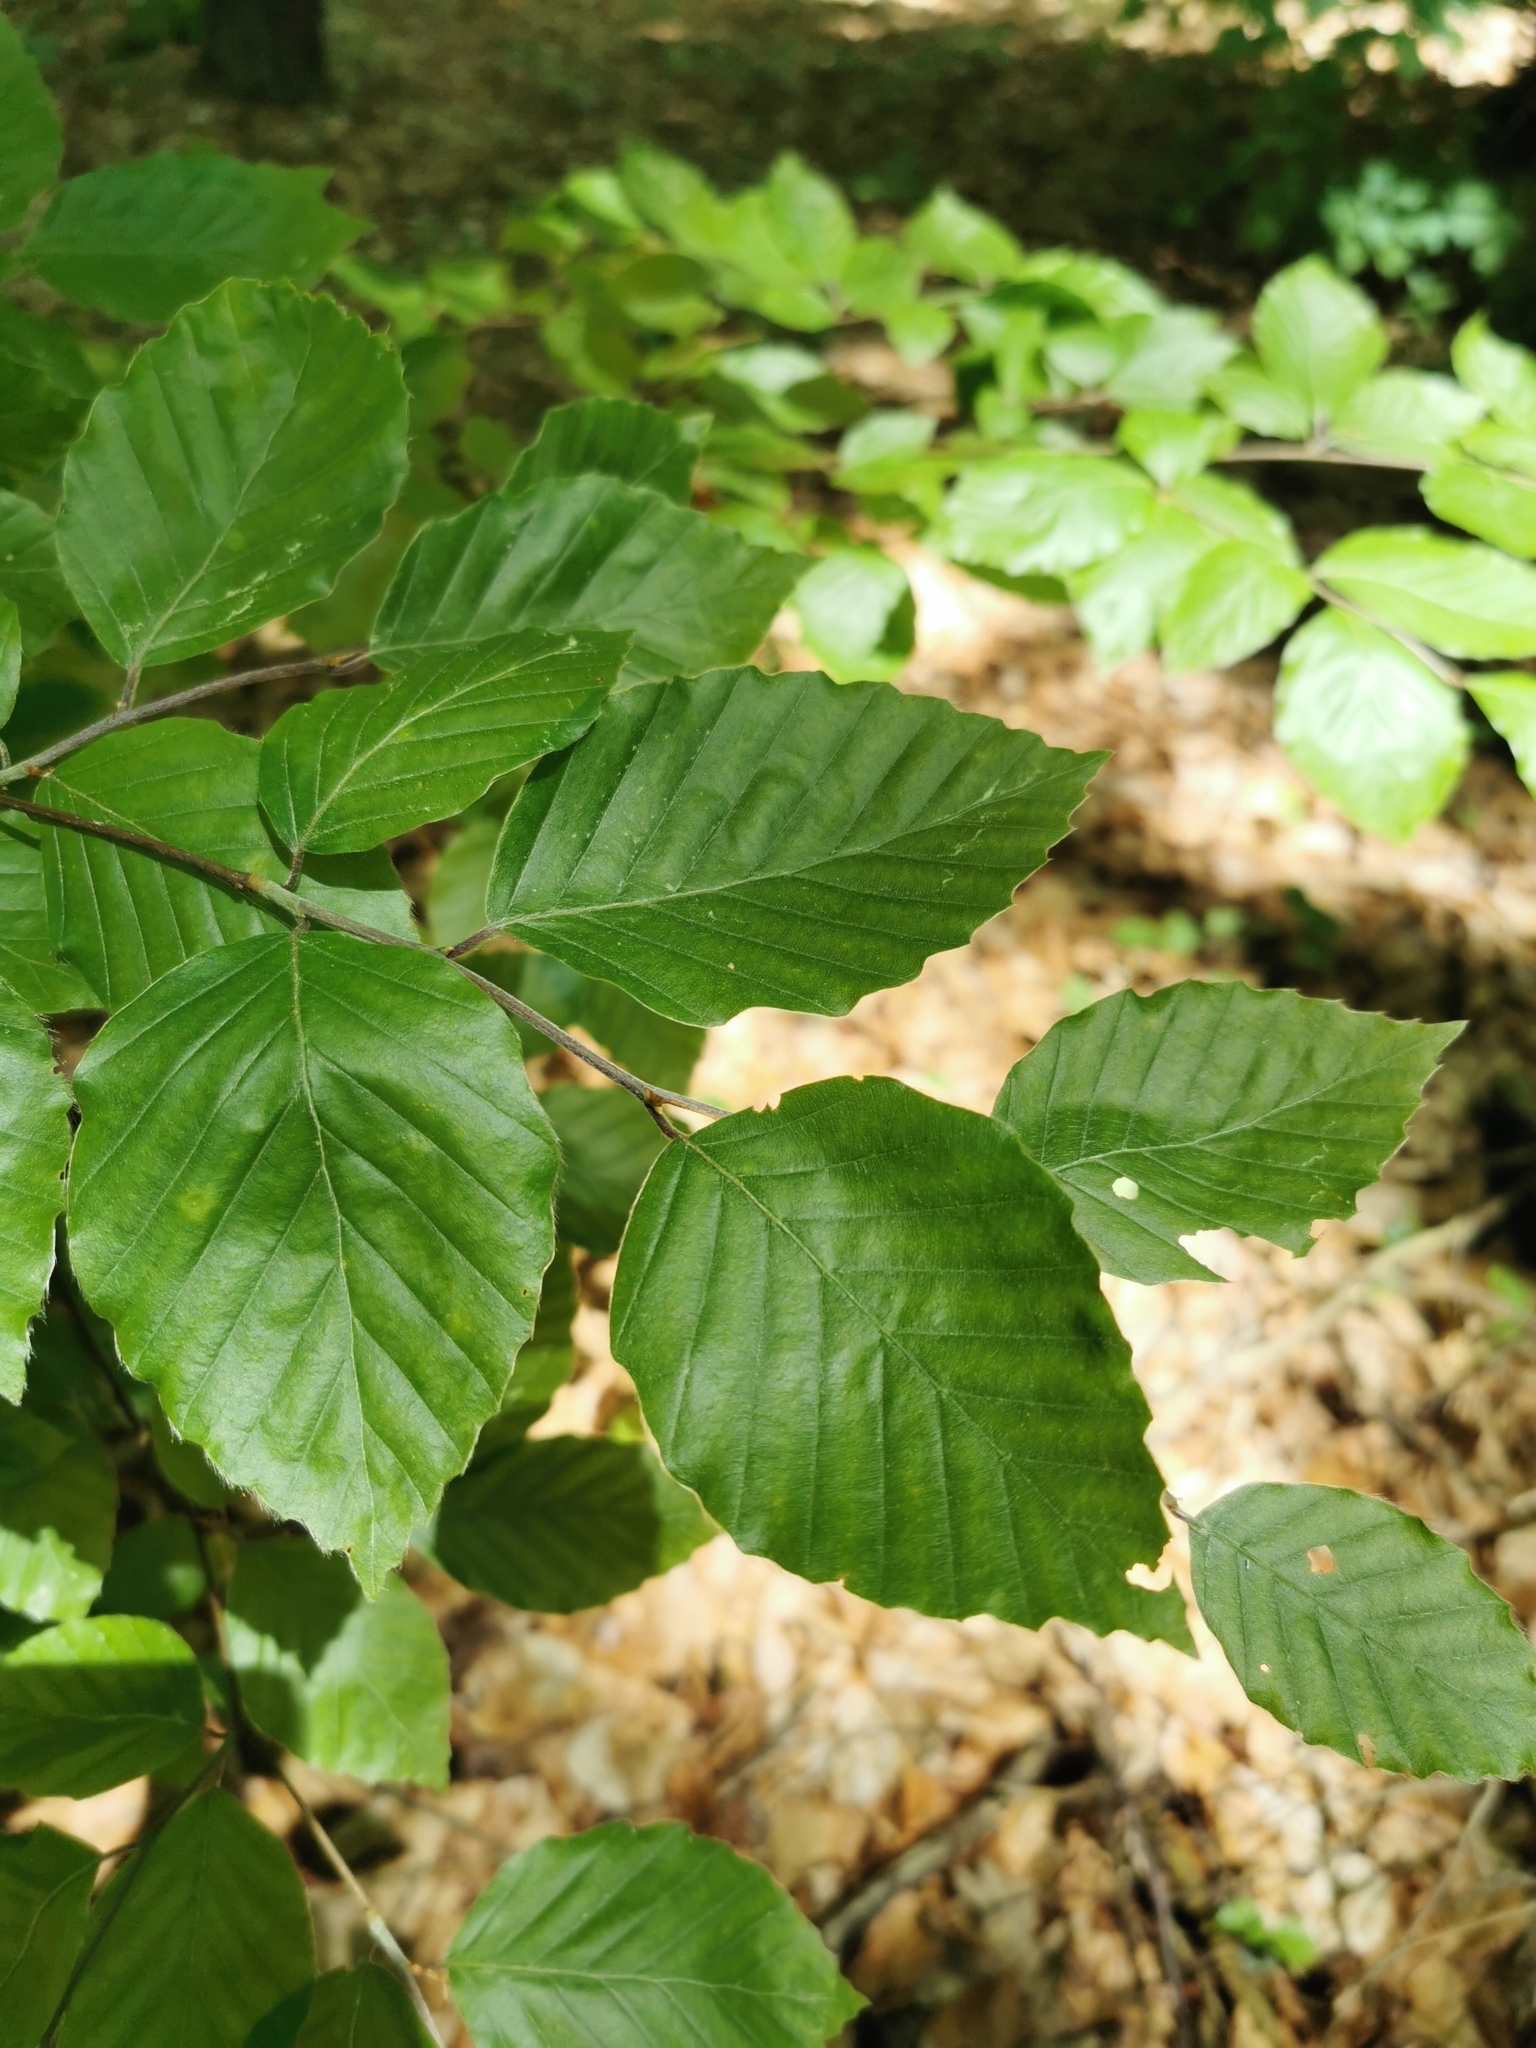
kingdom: Plantae
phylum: Tracheophyta
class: Magnoliopsida
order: Fagales
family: Fagaceae
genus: Fagus
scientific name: Fagus sylvatica
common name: Beech
